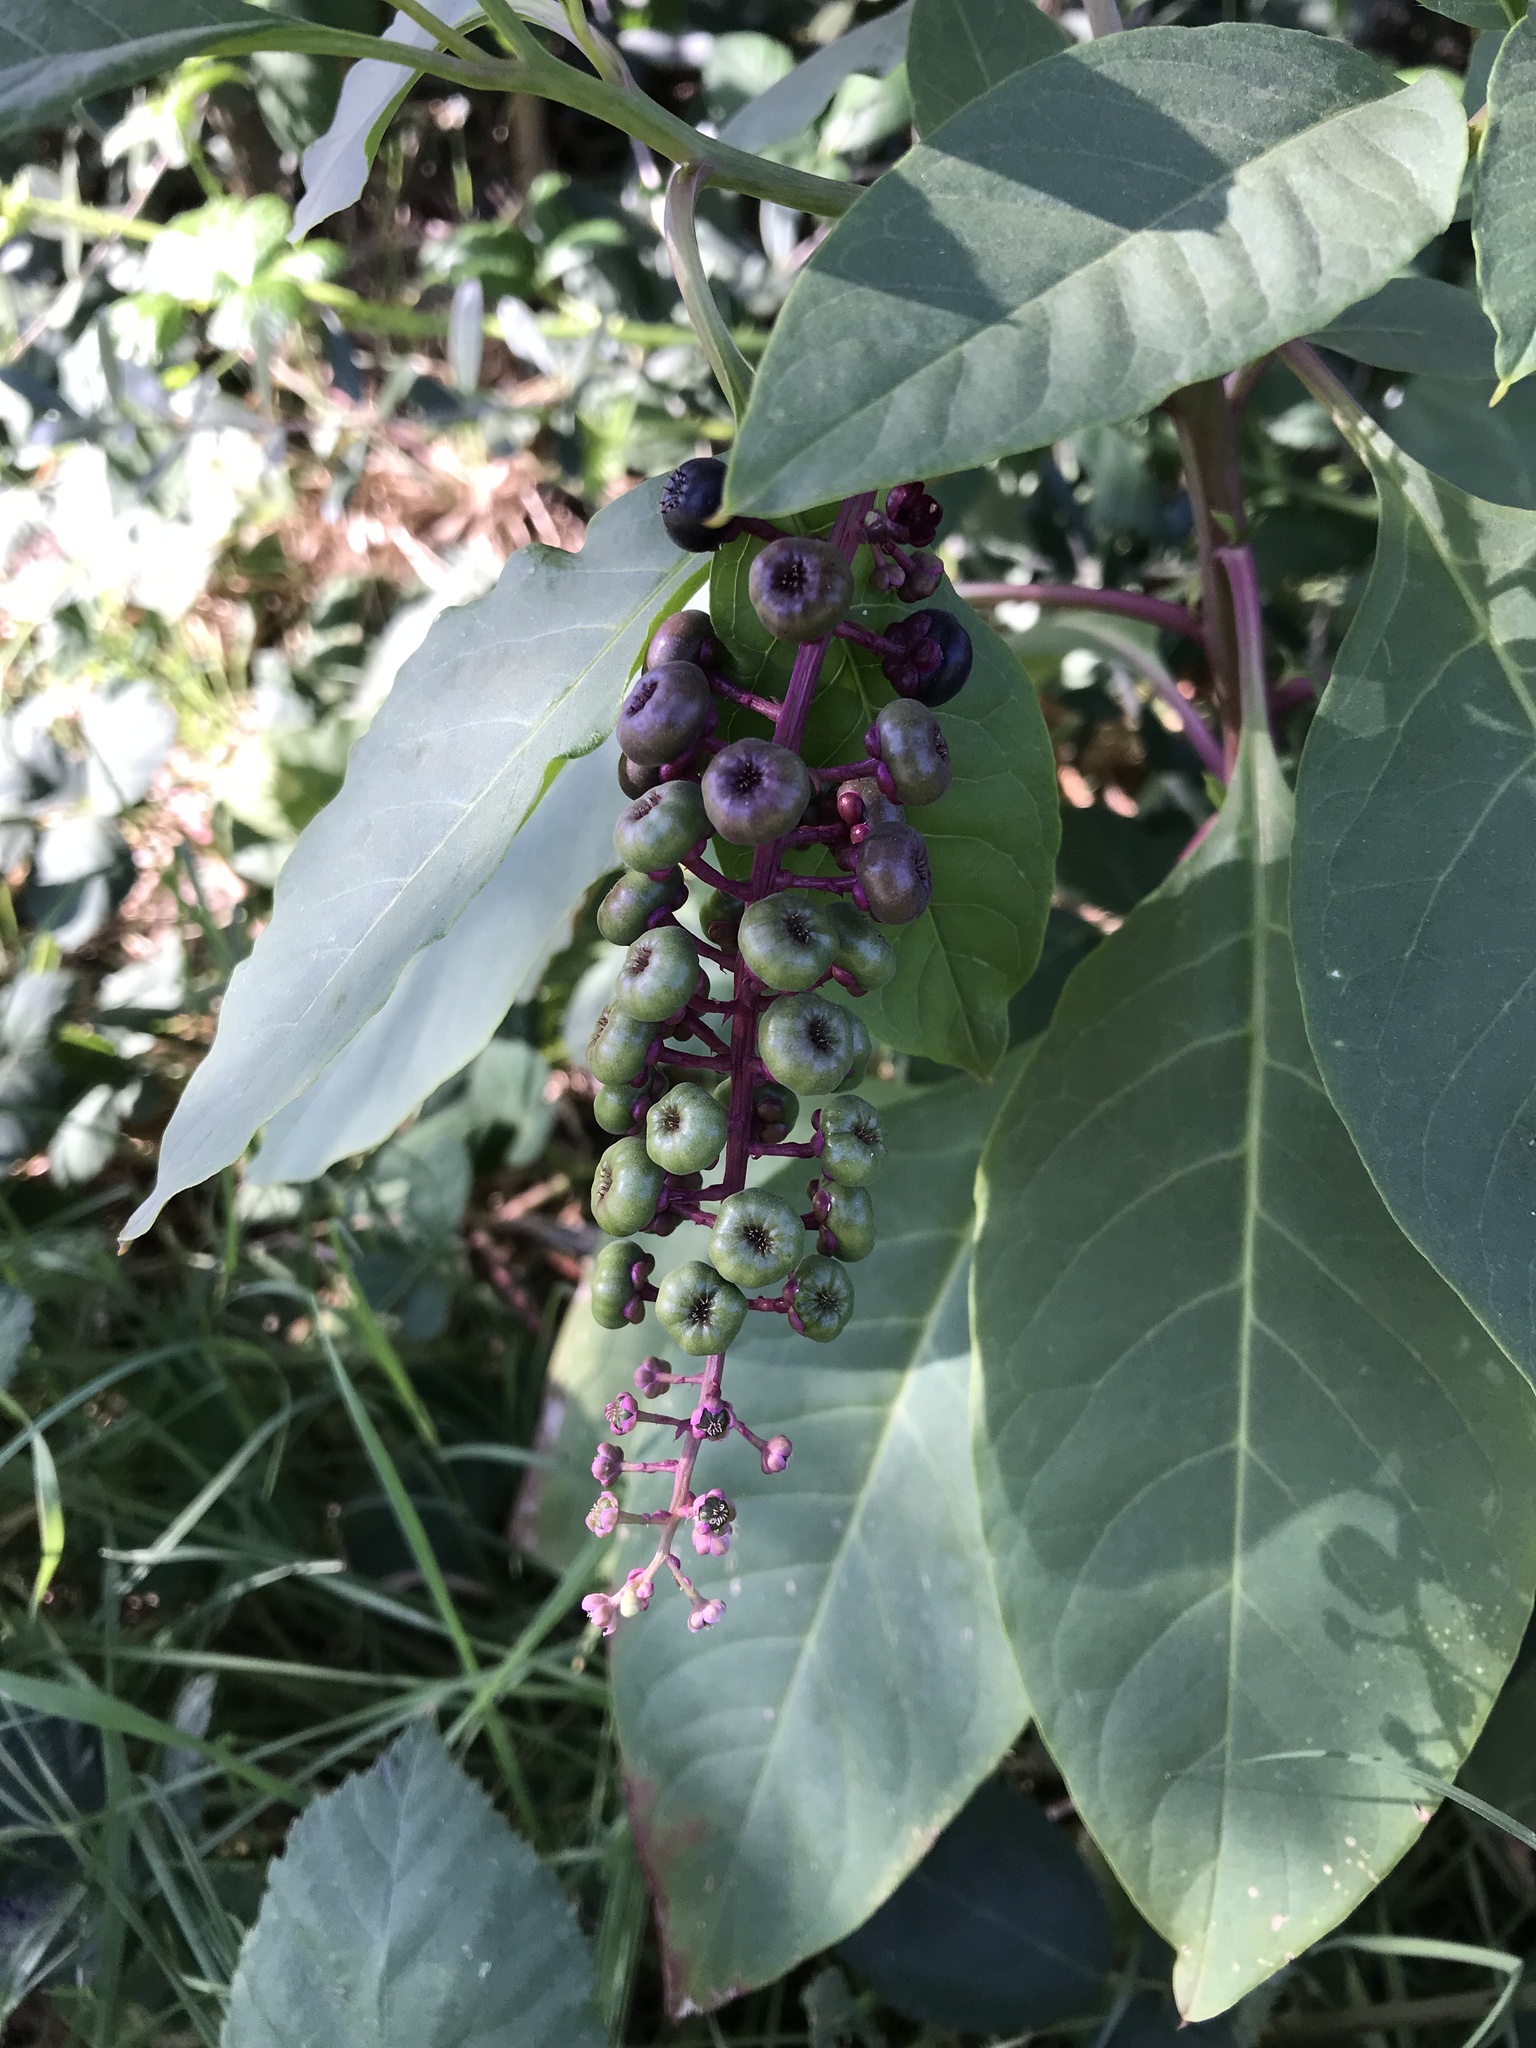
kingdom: Plantae
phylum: Tracheophyta
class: Magnoliopsida
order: Caryophyllales
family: Phytolaccaceae
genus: Phytolacca
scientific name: Phytolacca americana
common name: American pokeweed
